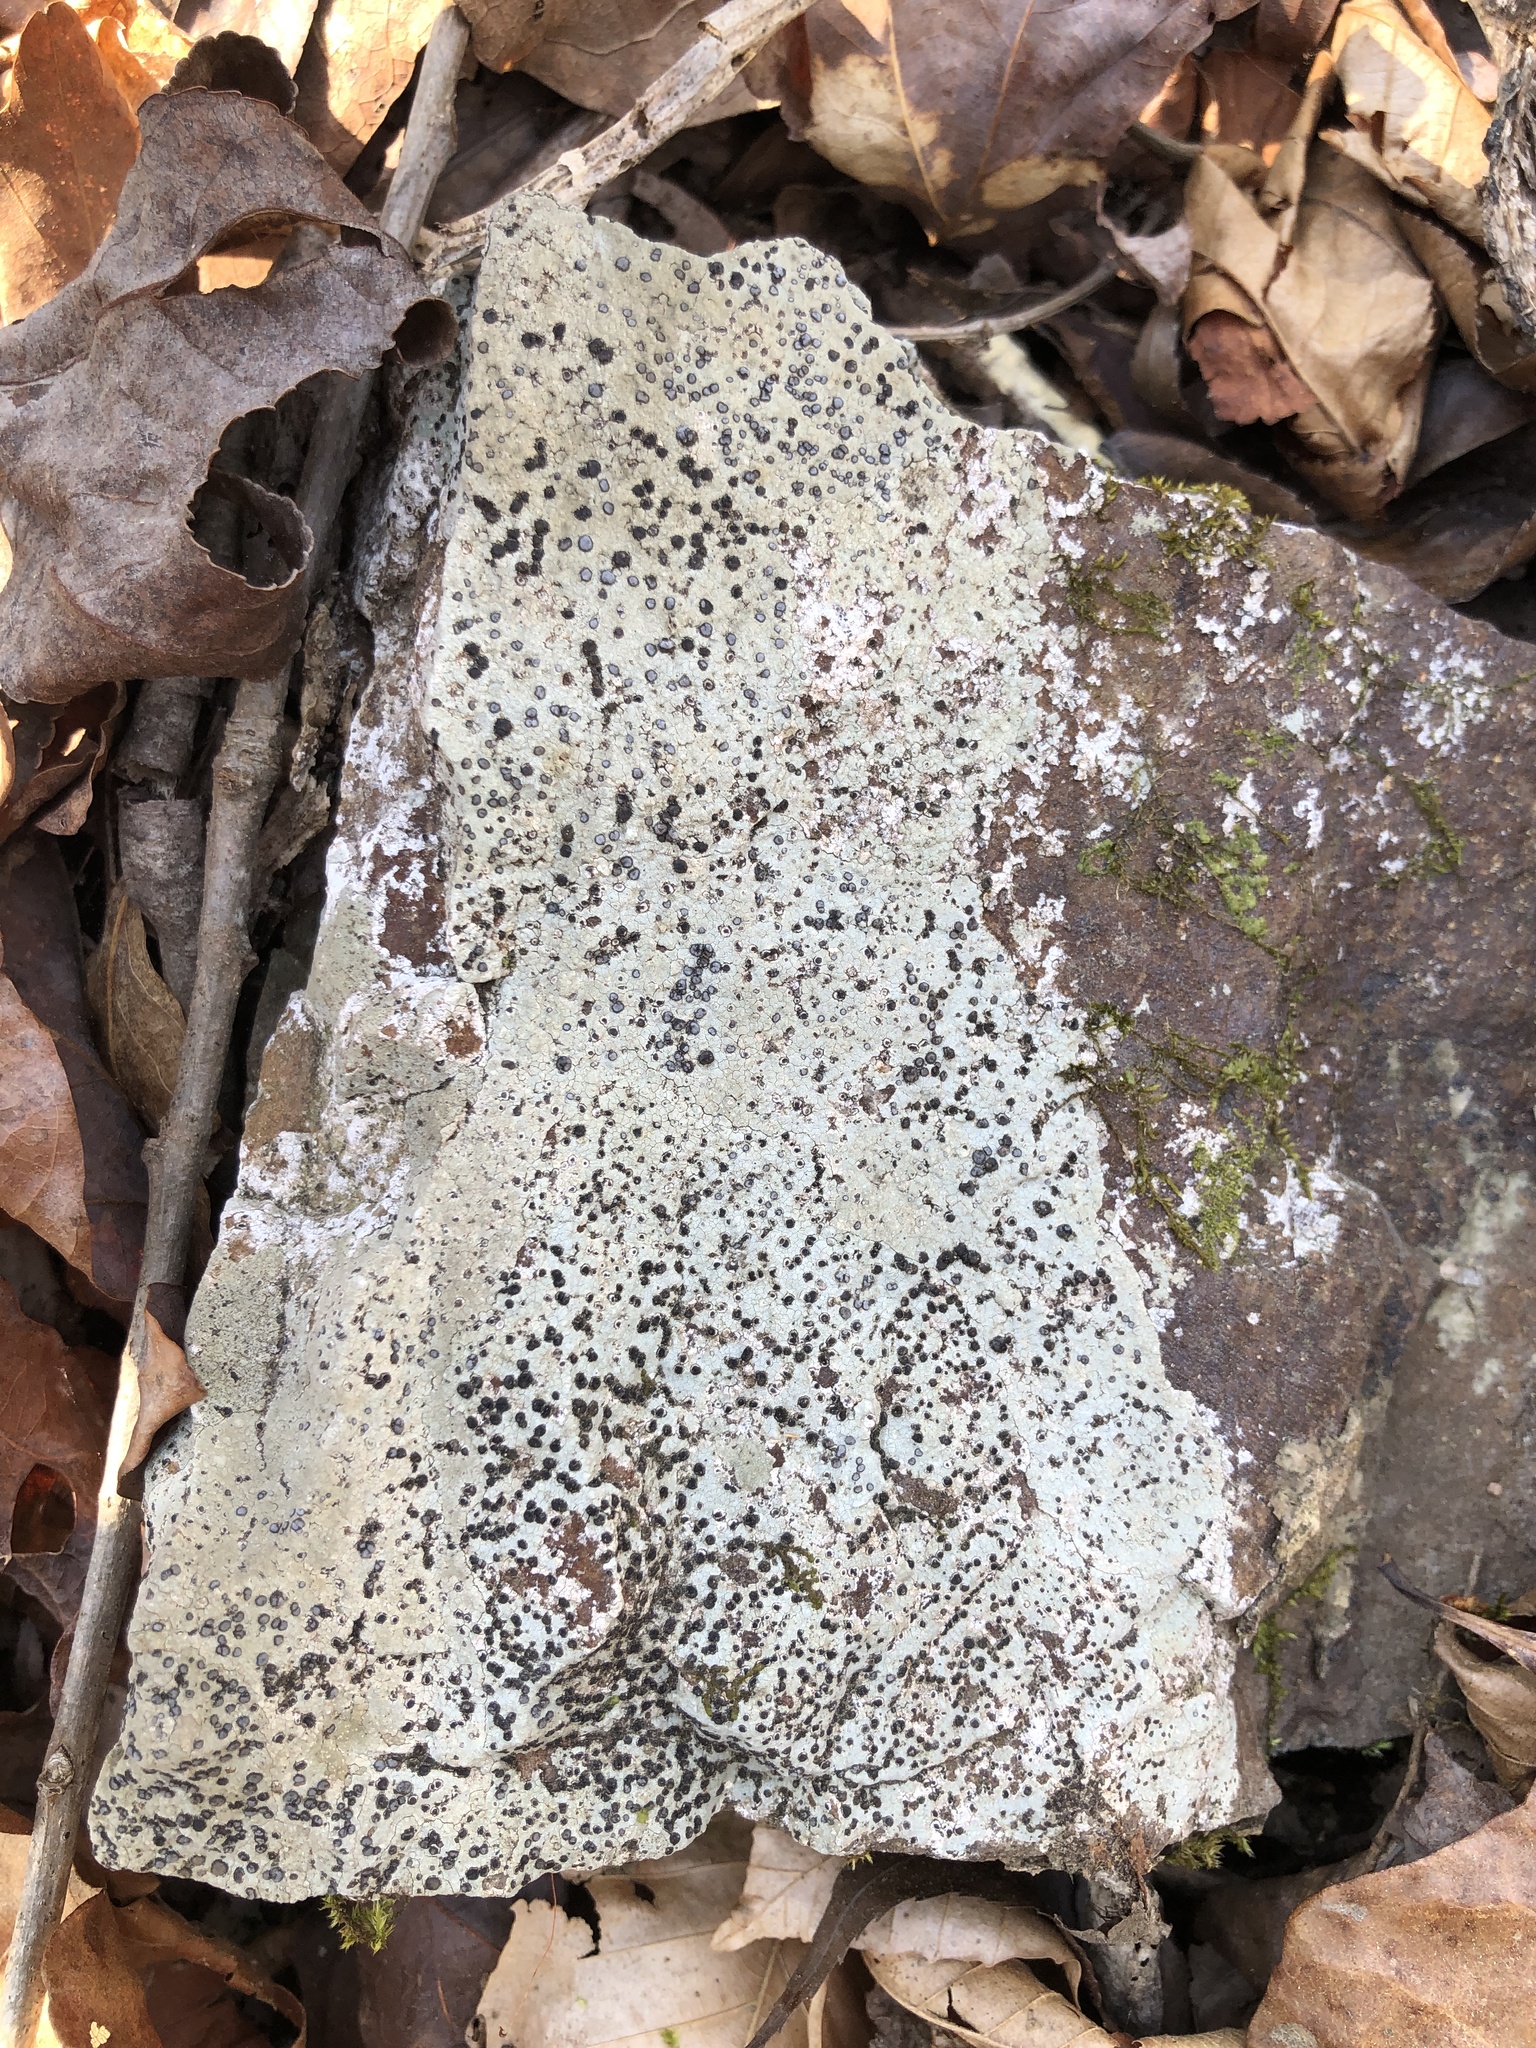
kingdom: Fungi
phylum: Ascomycota
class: Lecanoromycetes
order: Lecideales
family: Lecideaceae
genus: Porpidia
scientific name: Porpidia albocaerulescens
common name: Smokey-eyed boulder lichen
